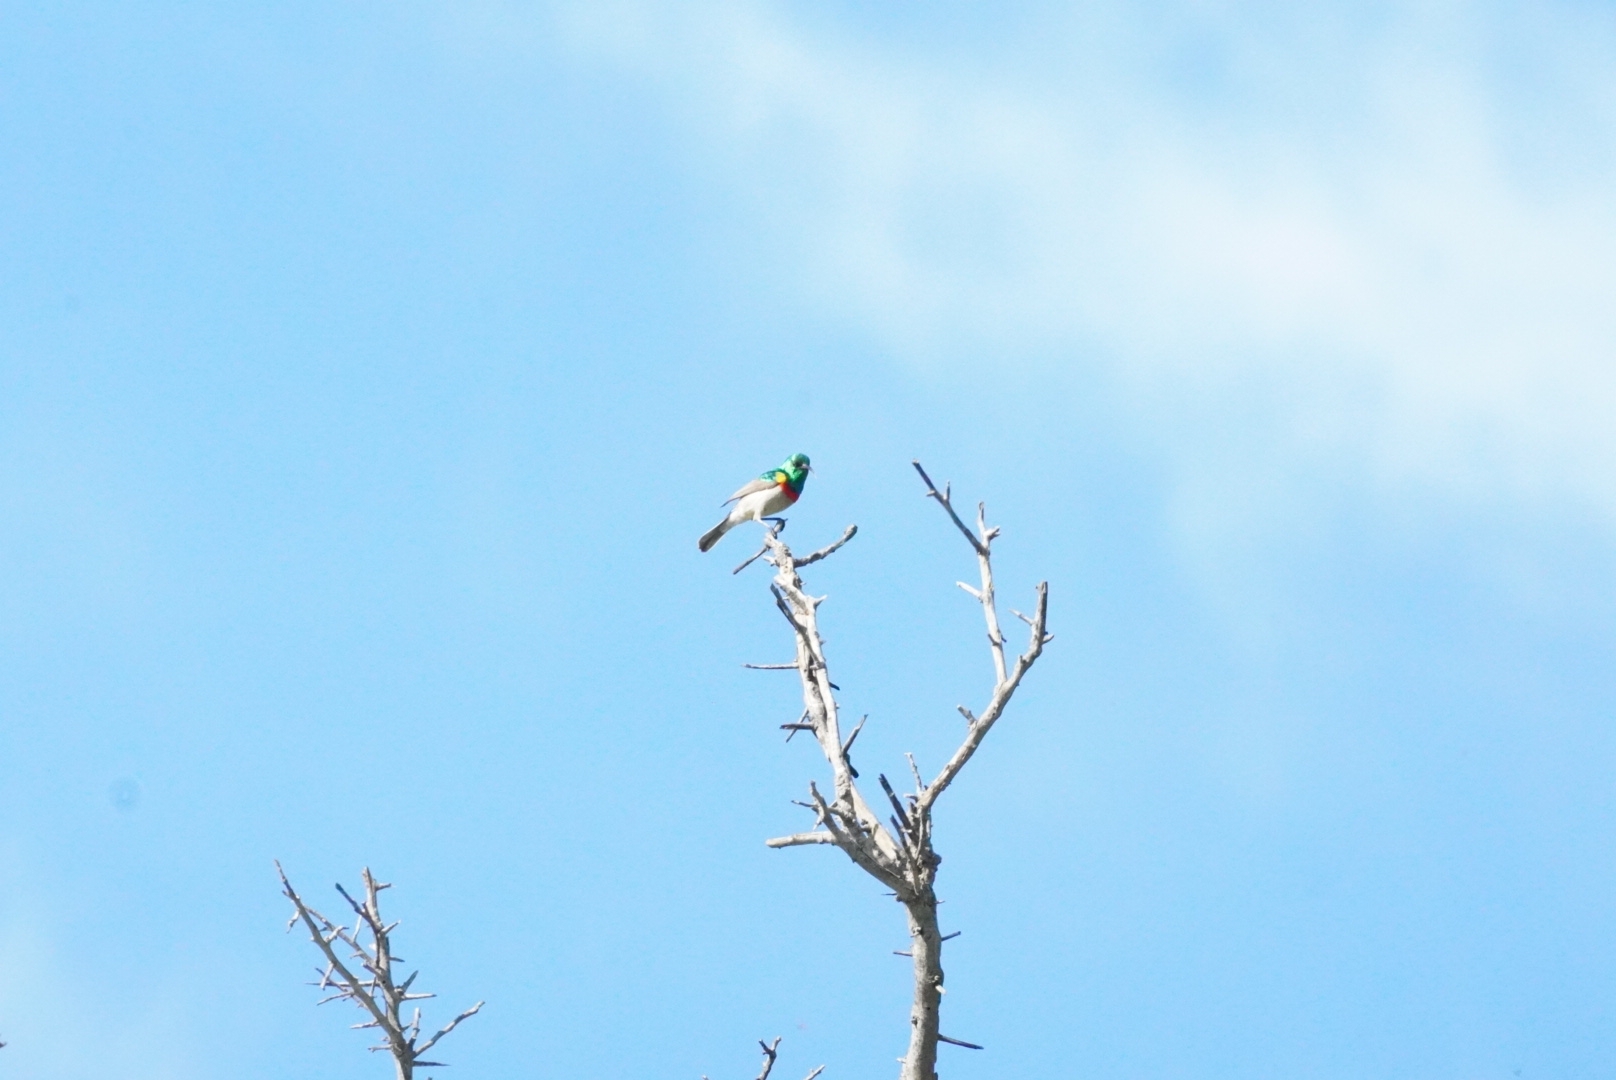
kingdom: Animalia
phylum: Chordata
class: Aves
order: Passeriformes
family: Nectariniidae
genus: Cinnyris
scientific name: Cinnyris chalybeus
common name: Southern double-collared sunbird
